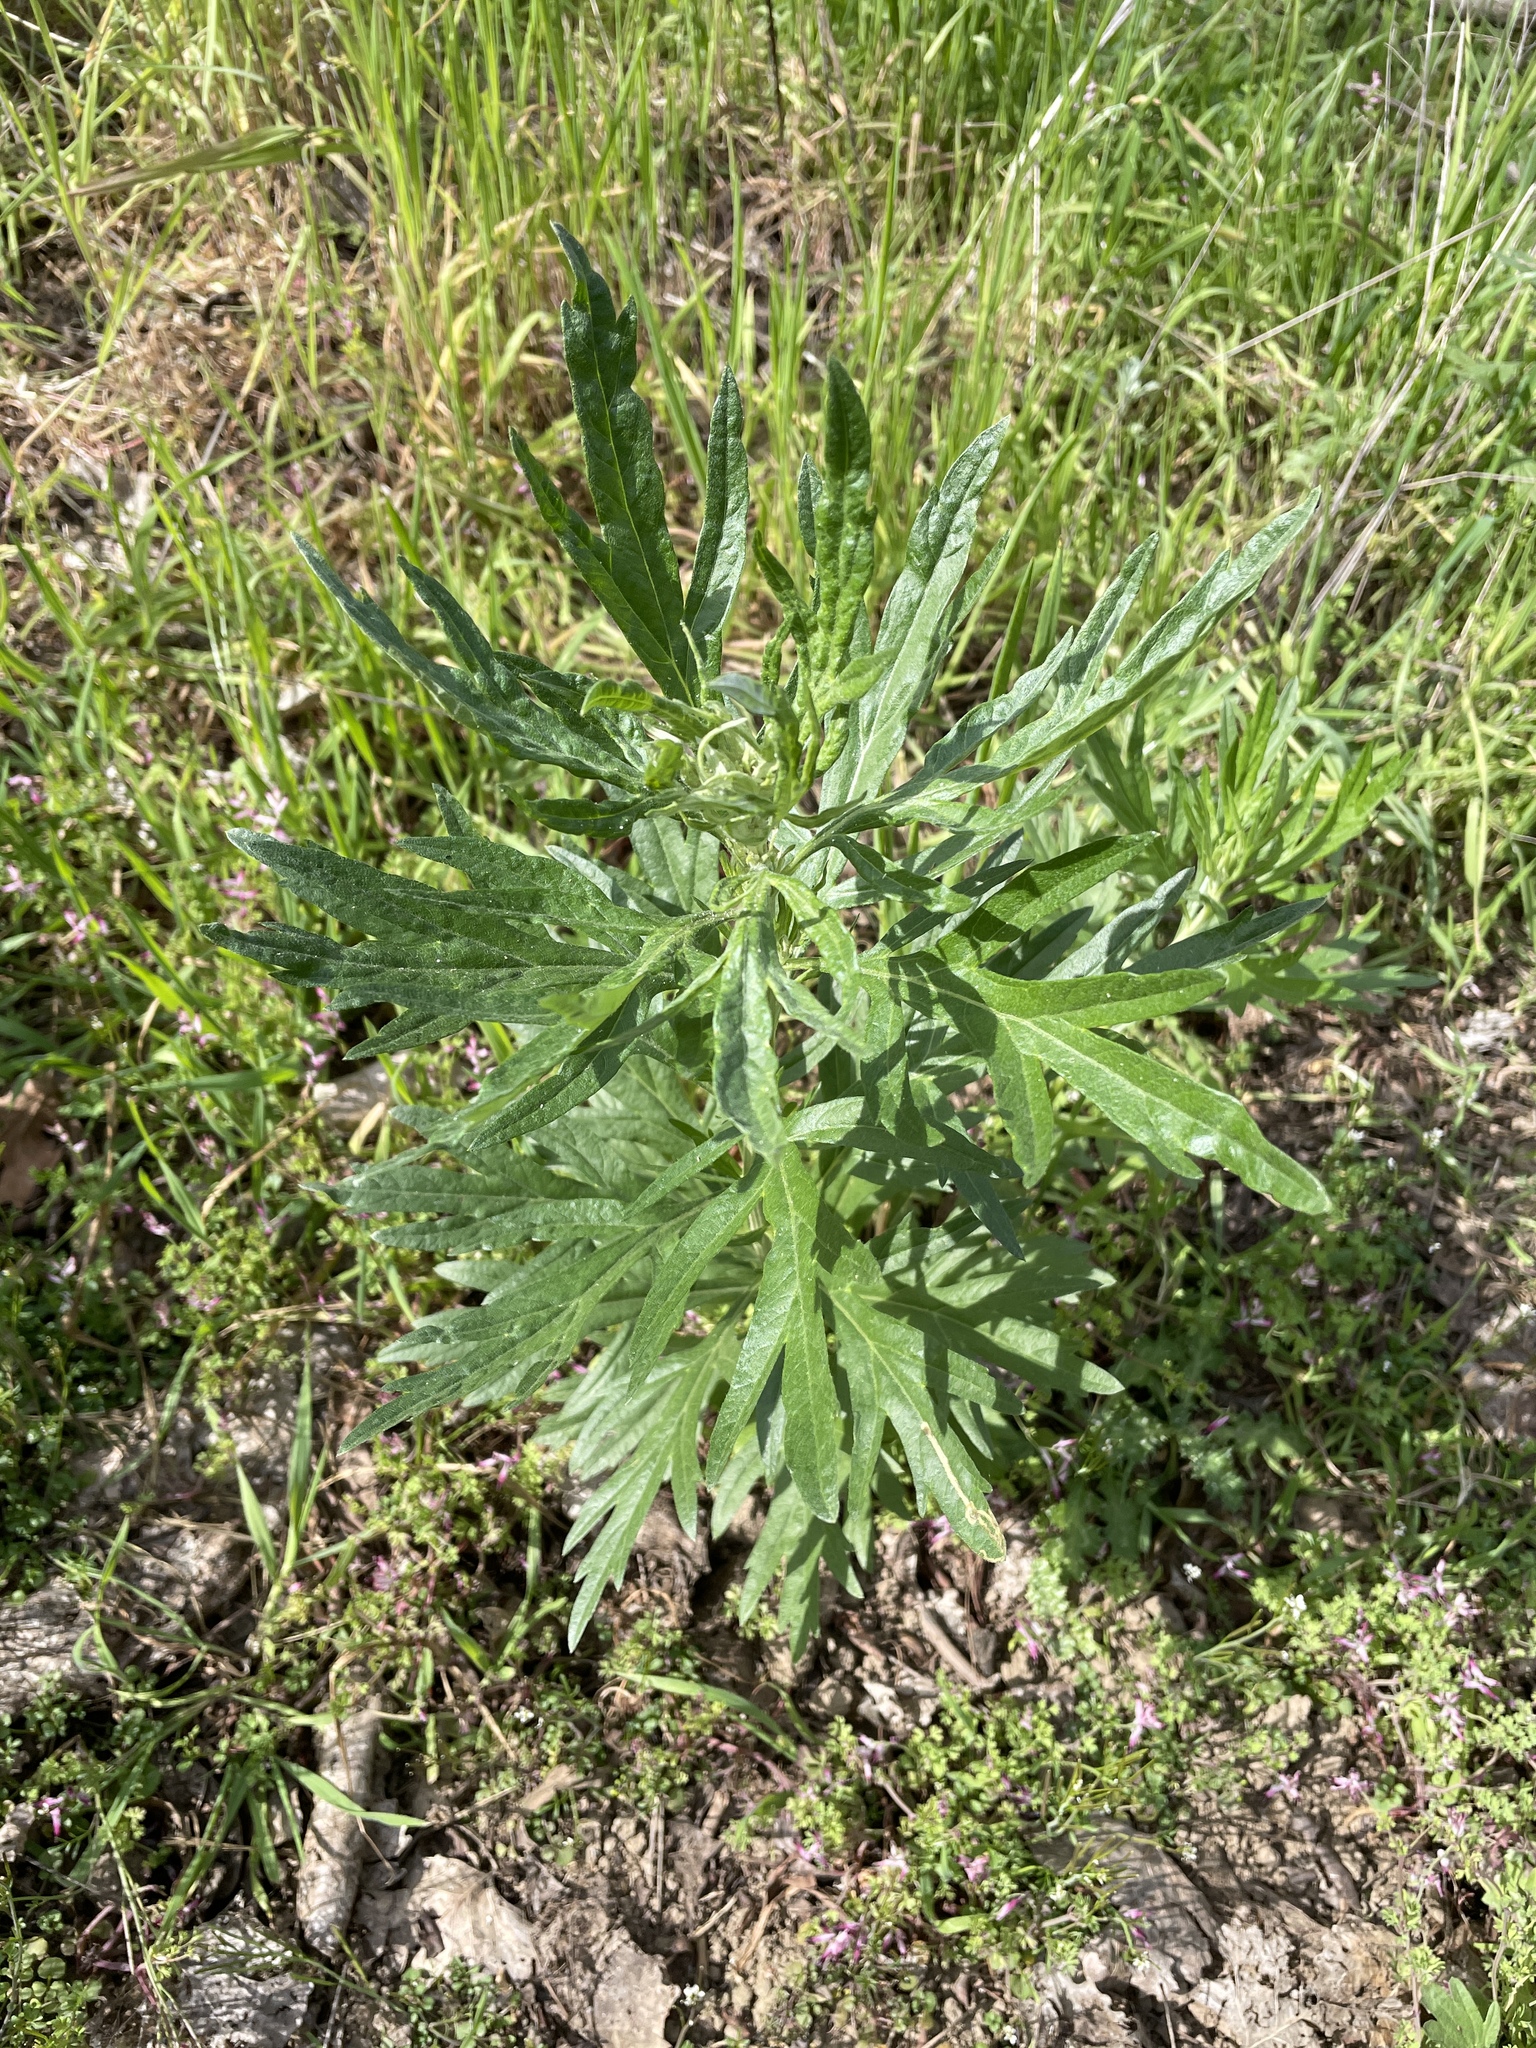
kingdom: Plantae
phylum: Tracheophyta
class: Magnoliopsida
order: Asterales
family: Asteraceae
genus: Artemisia
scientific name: Artemisia douglasiana
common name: Northwest mugwort
